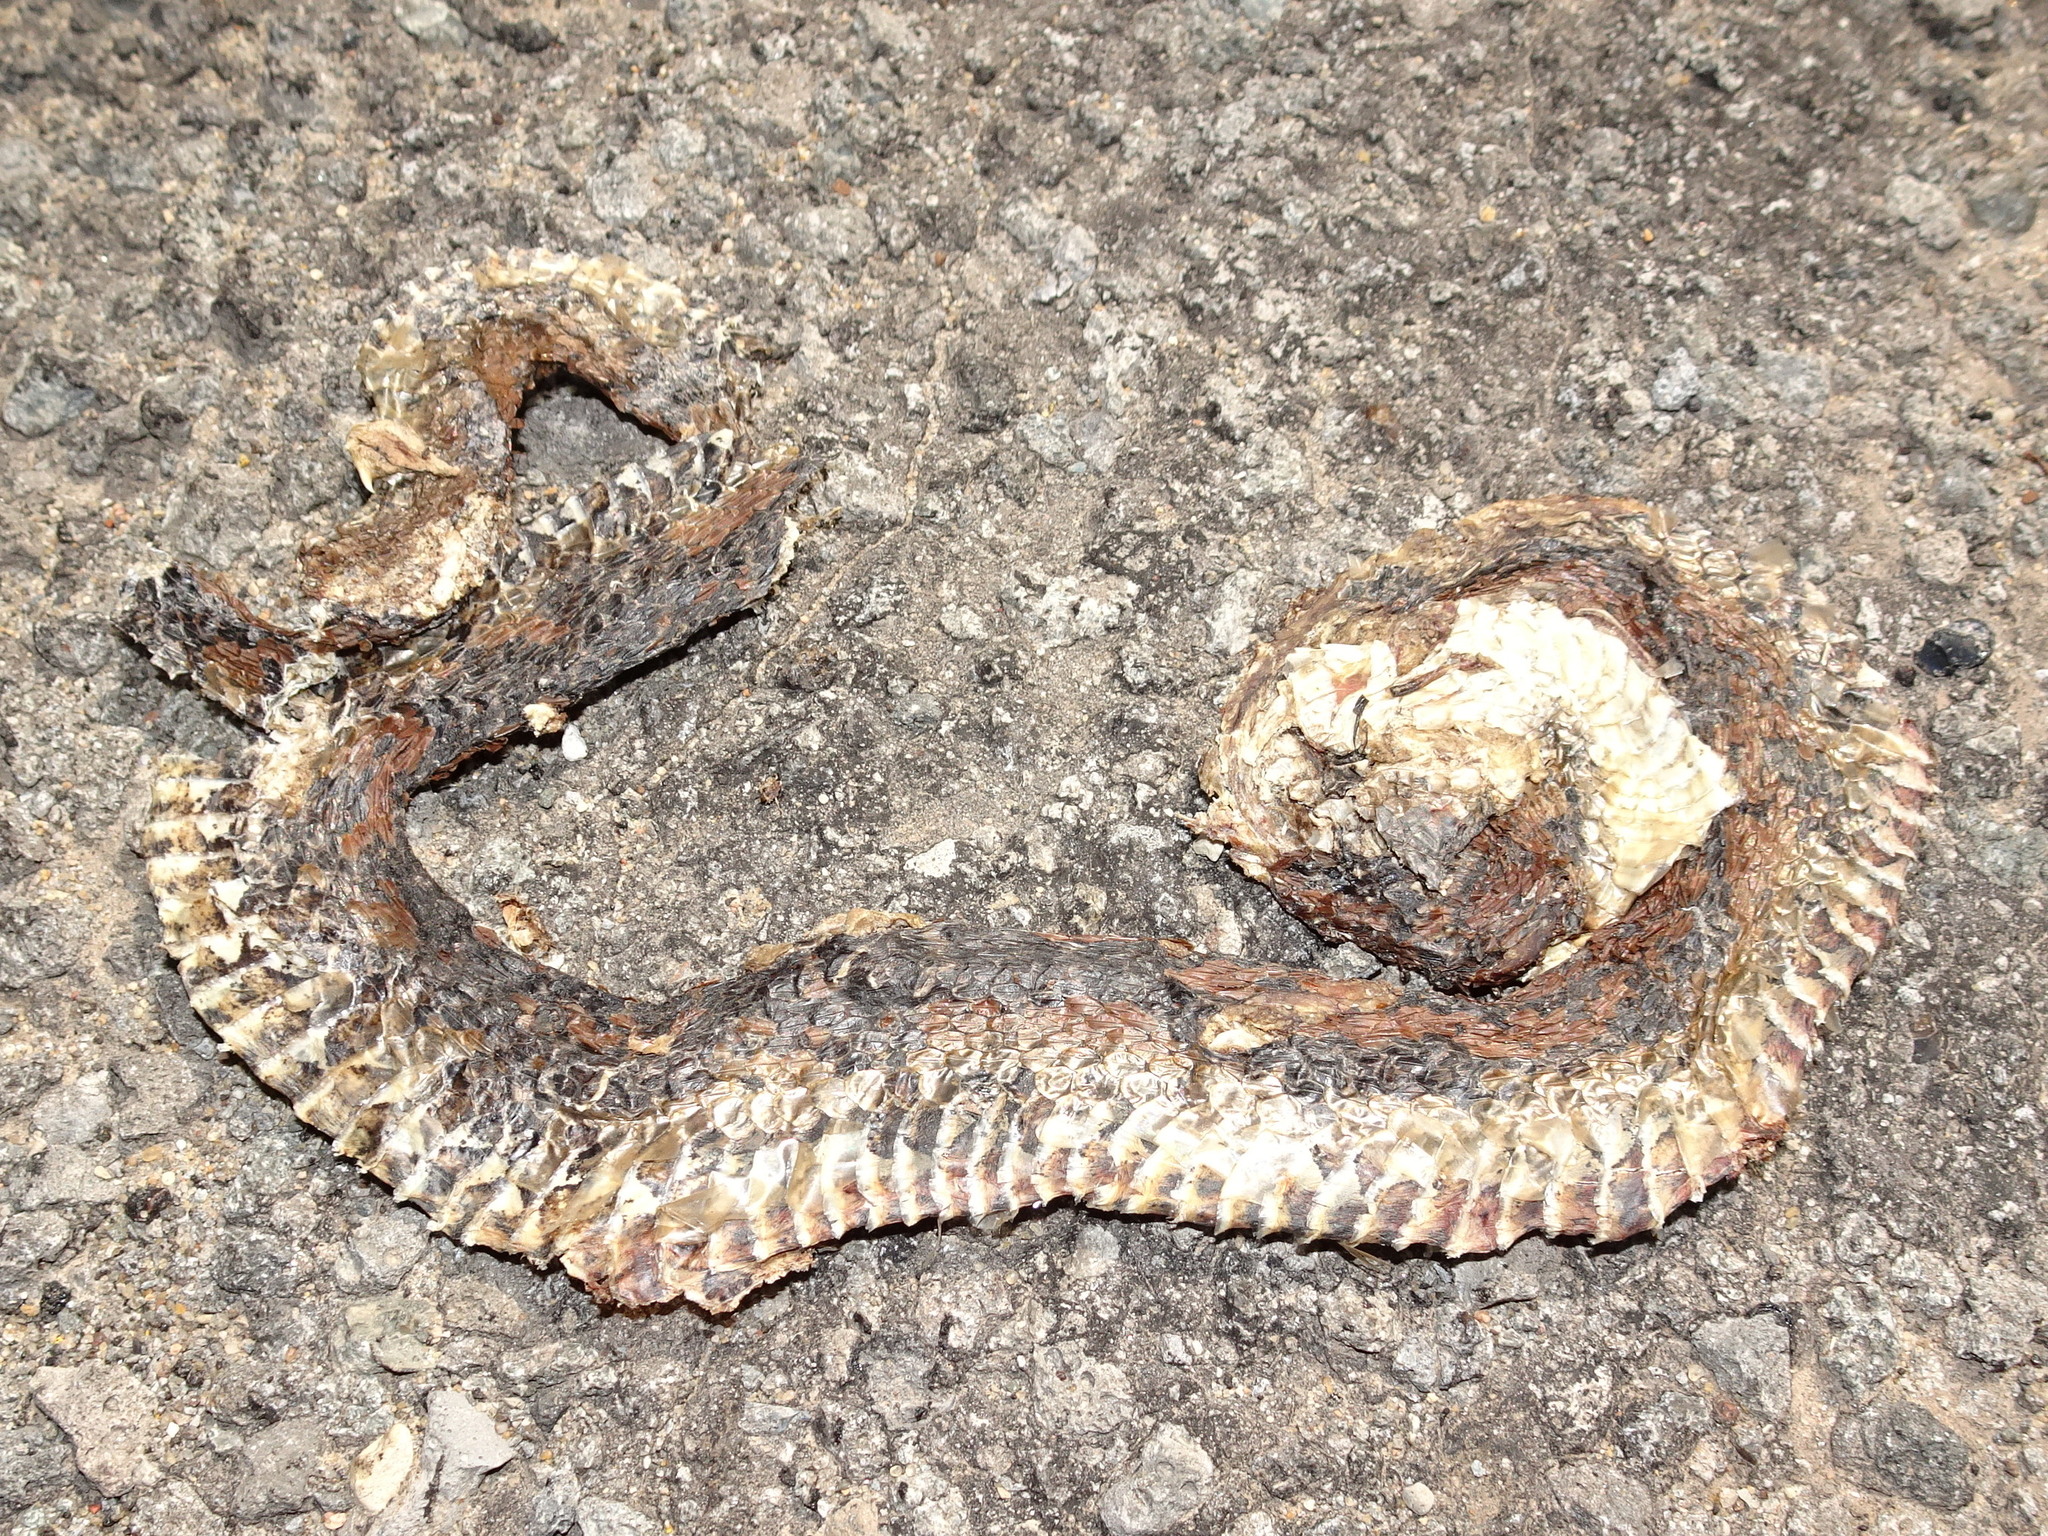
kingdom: Animalia
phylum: Chordata
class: Squamata
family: Colubridae
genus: Nerodia
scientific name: Nerodia sipedon
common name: Northern water snake
